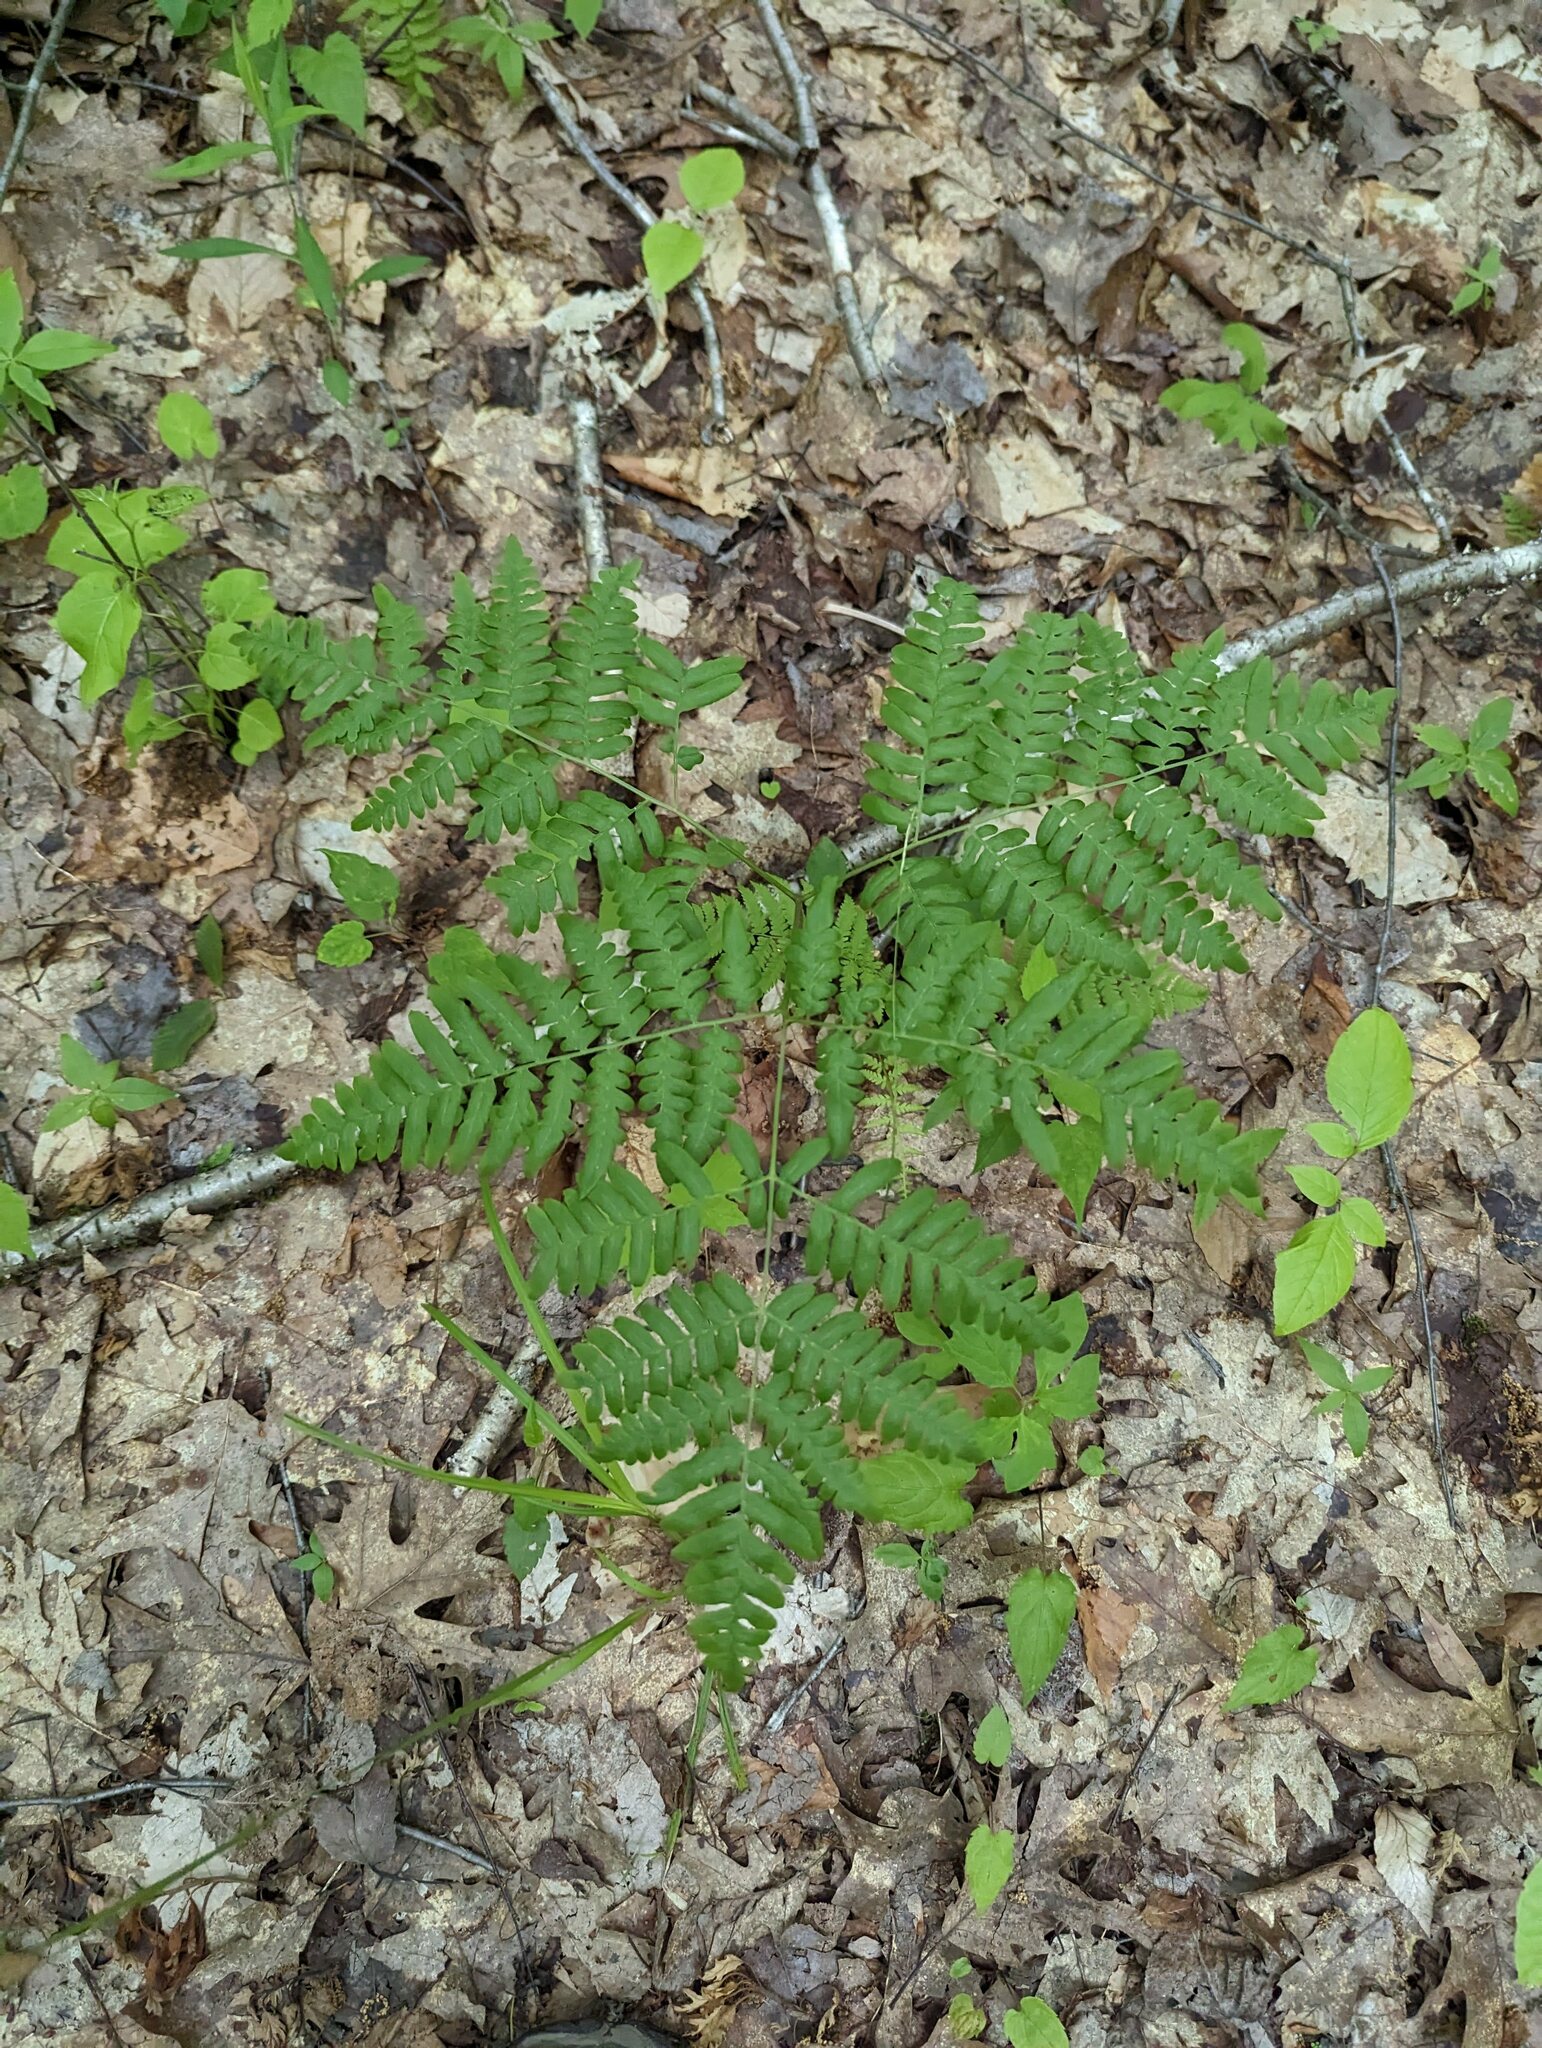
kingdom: Plantae
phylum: Tracheophyta
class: Polypodiopsida
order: Polypodiales
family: Dennstaedtiaceae
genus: Pteridium
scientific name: Pteridium aquilinum
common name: Bracken
